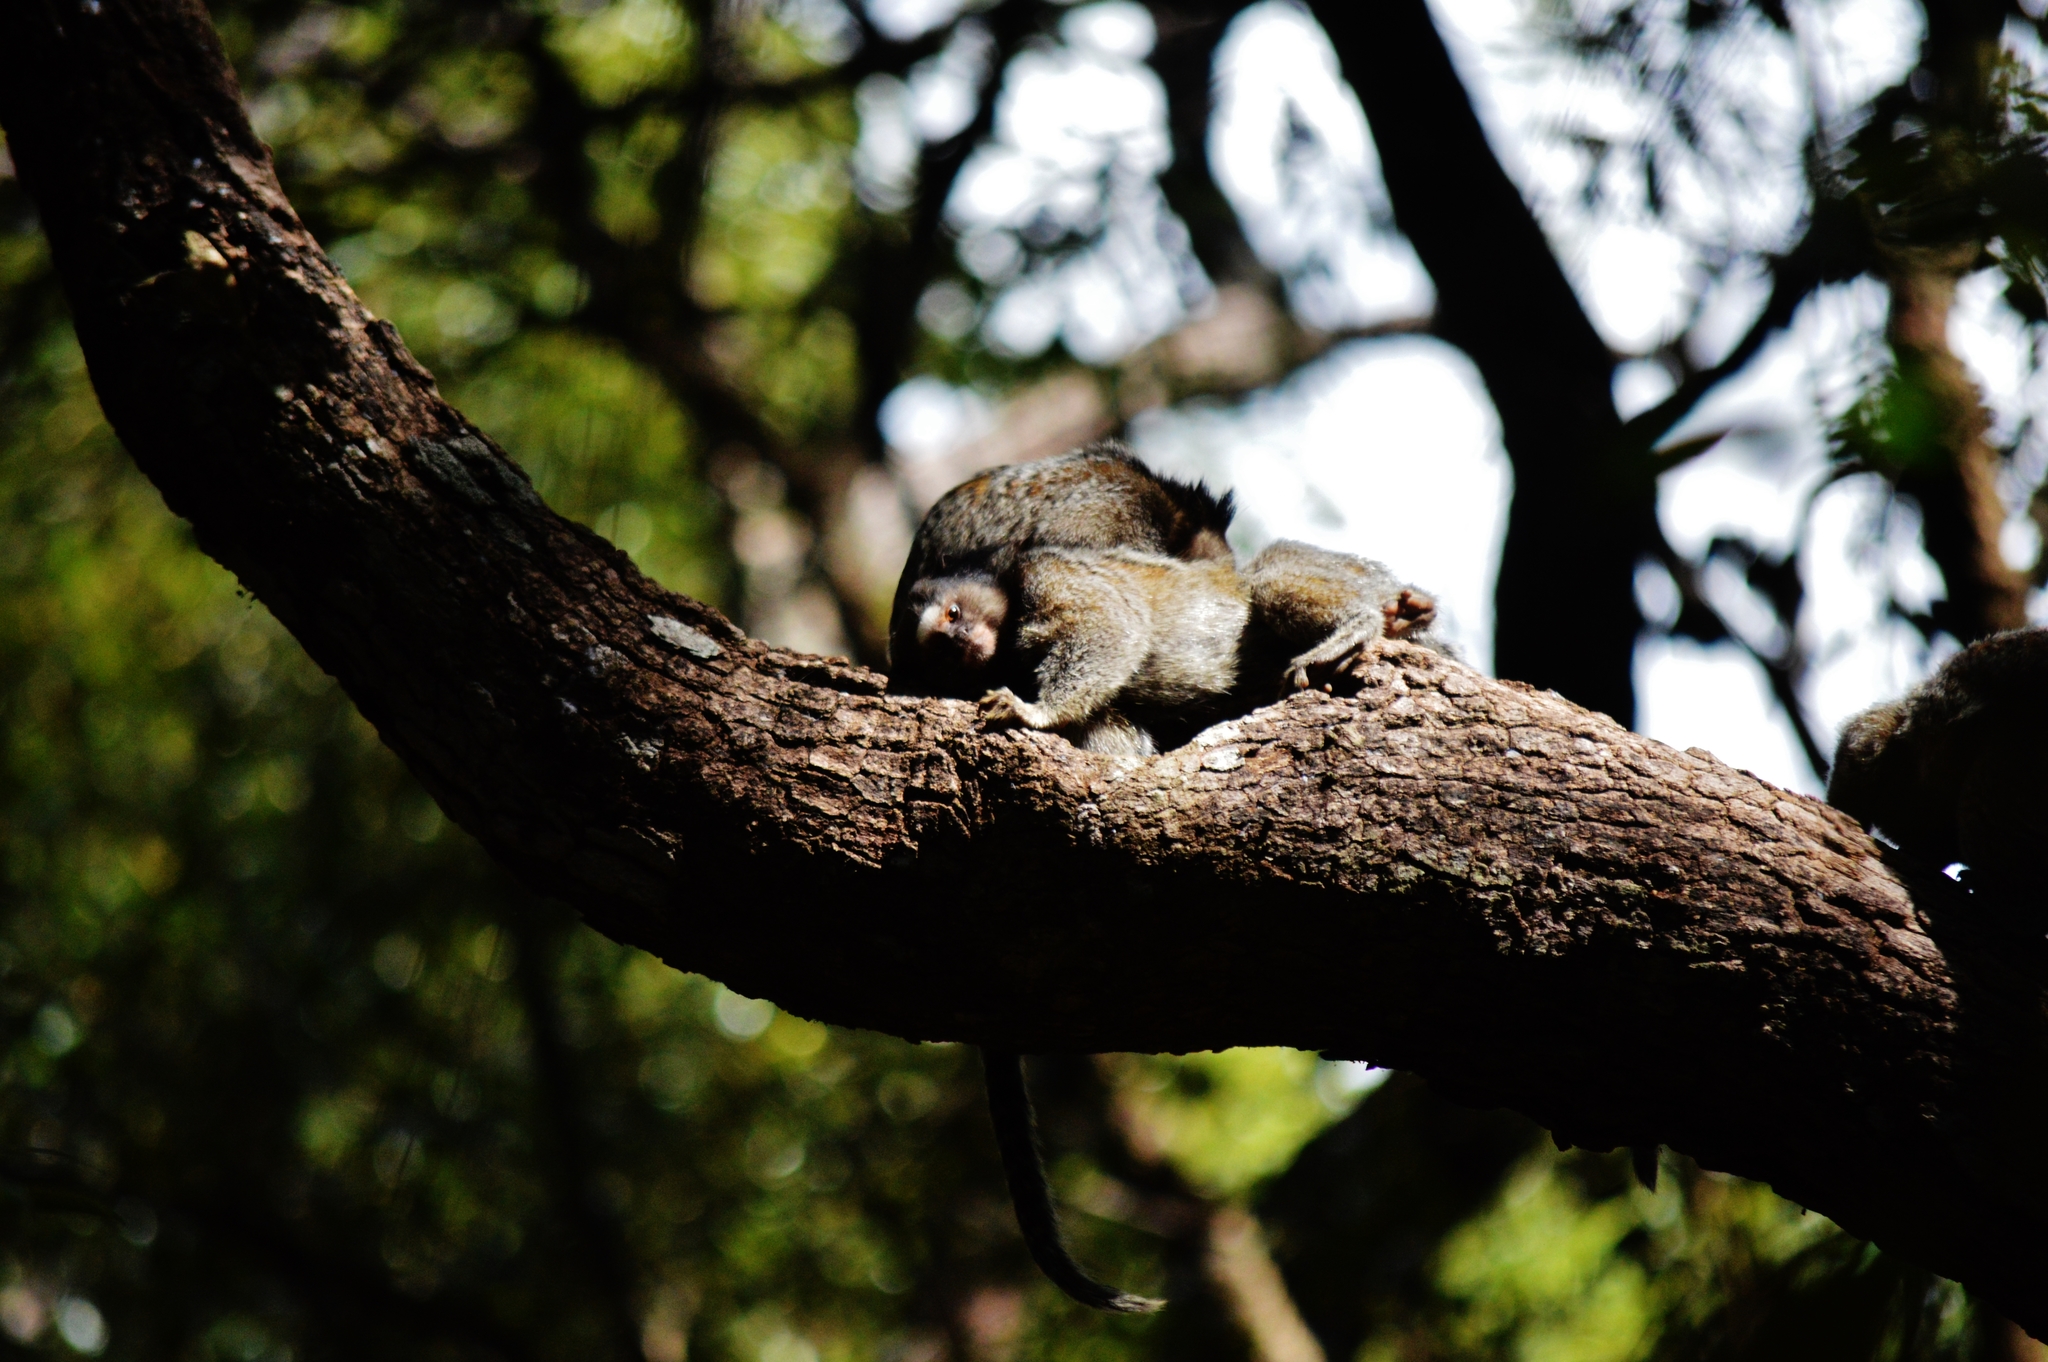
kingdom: Animalia
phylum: Chordata
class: Mammalia
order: Primates
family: Callitrichidae
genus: Callithrix
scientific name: Callithrix penicillata
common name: Black-tufted marmoset
